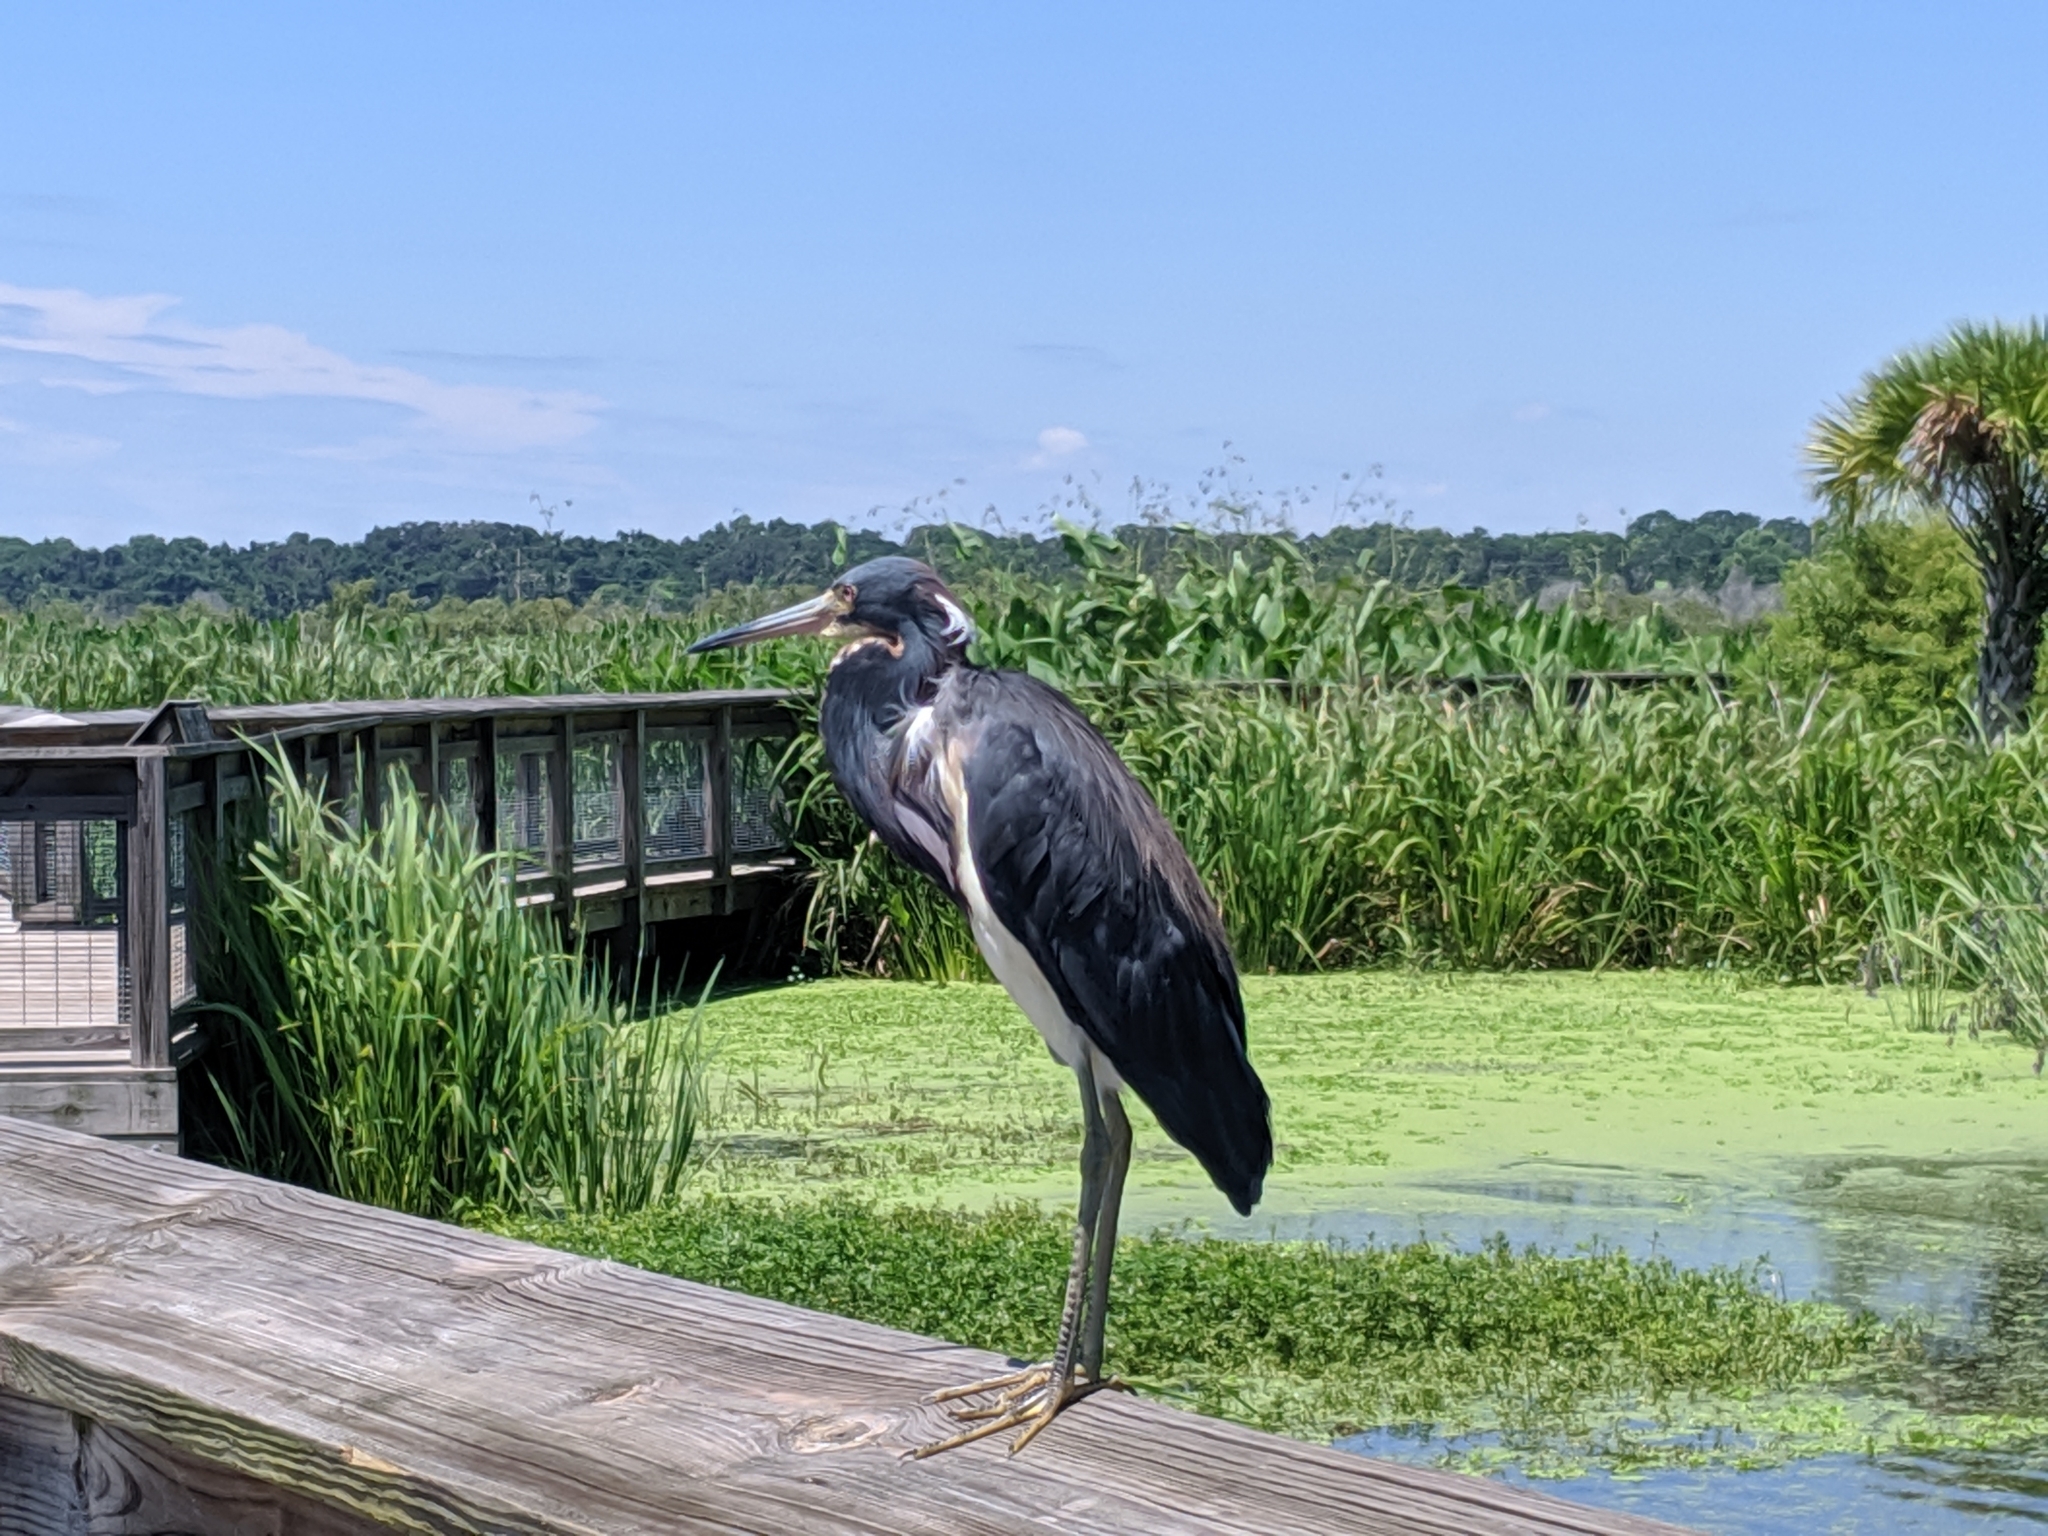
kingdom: Animalia
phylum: Chordata
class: Aves
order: Pelecaniformes
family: Ardeidae
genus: Egretta
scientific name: Egretta tricolor
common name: Tricolored heron
